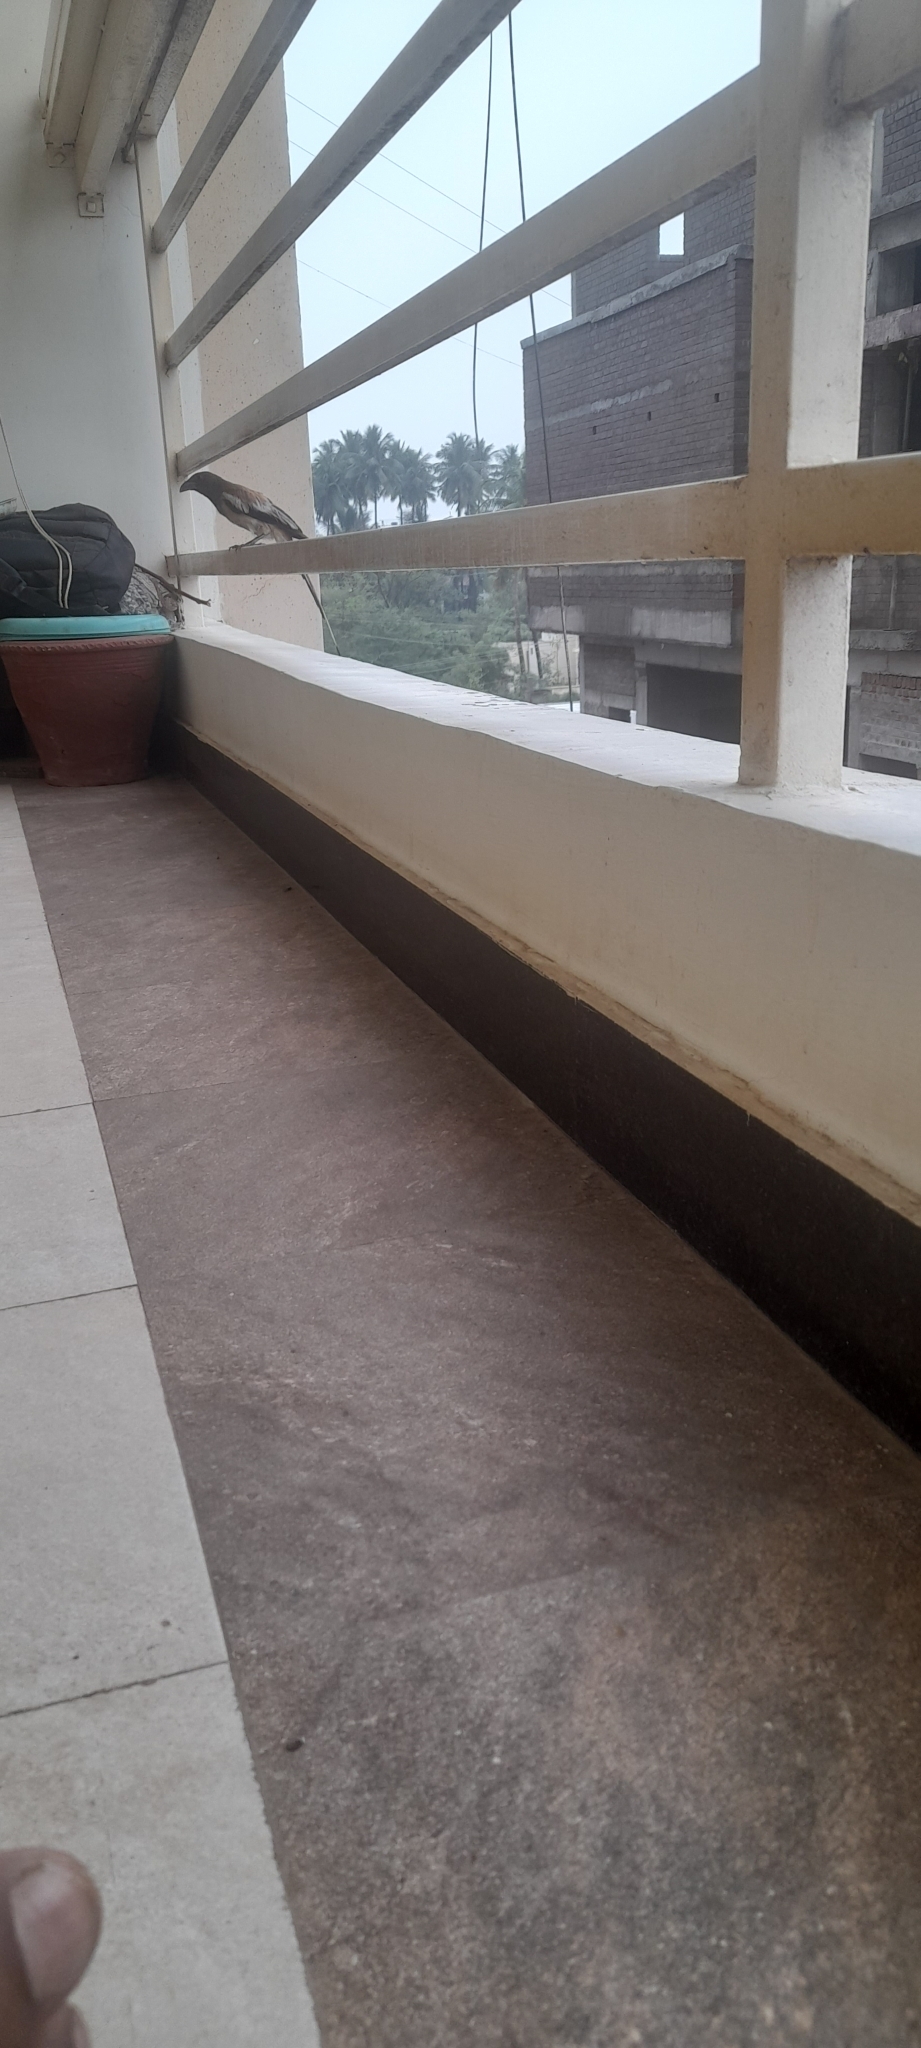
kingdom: Animalia
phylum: Chordata
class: Aves
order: Passeriformes
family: Corvidae
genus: Dendrocitta
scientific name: Dendrocitta vagabunda
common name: Rufous treepie
